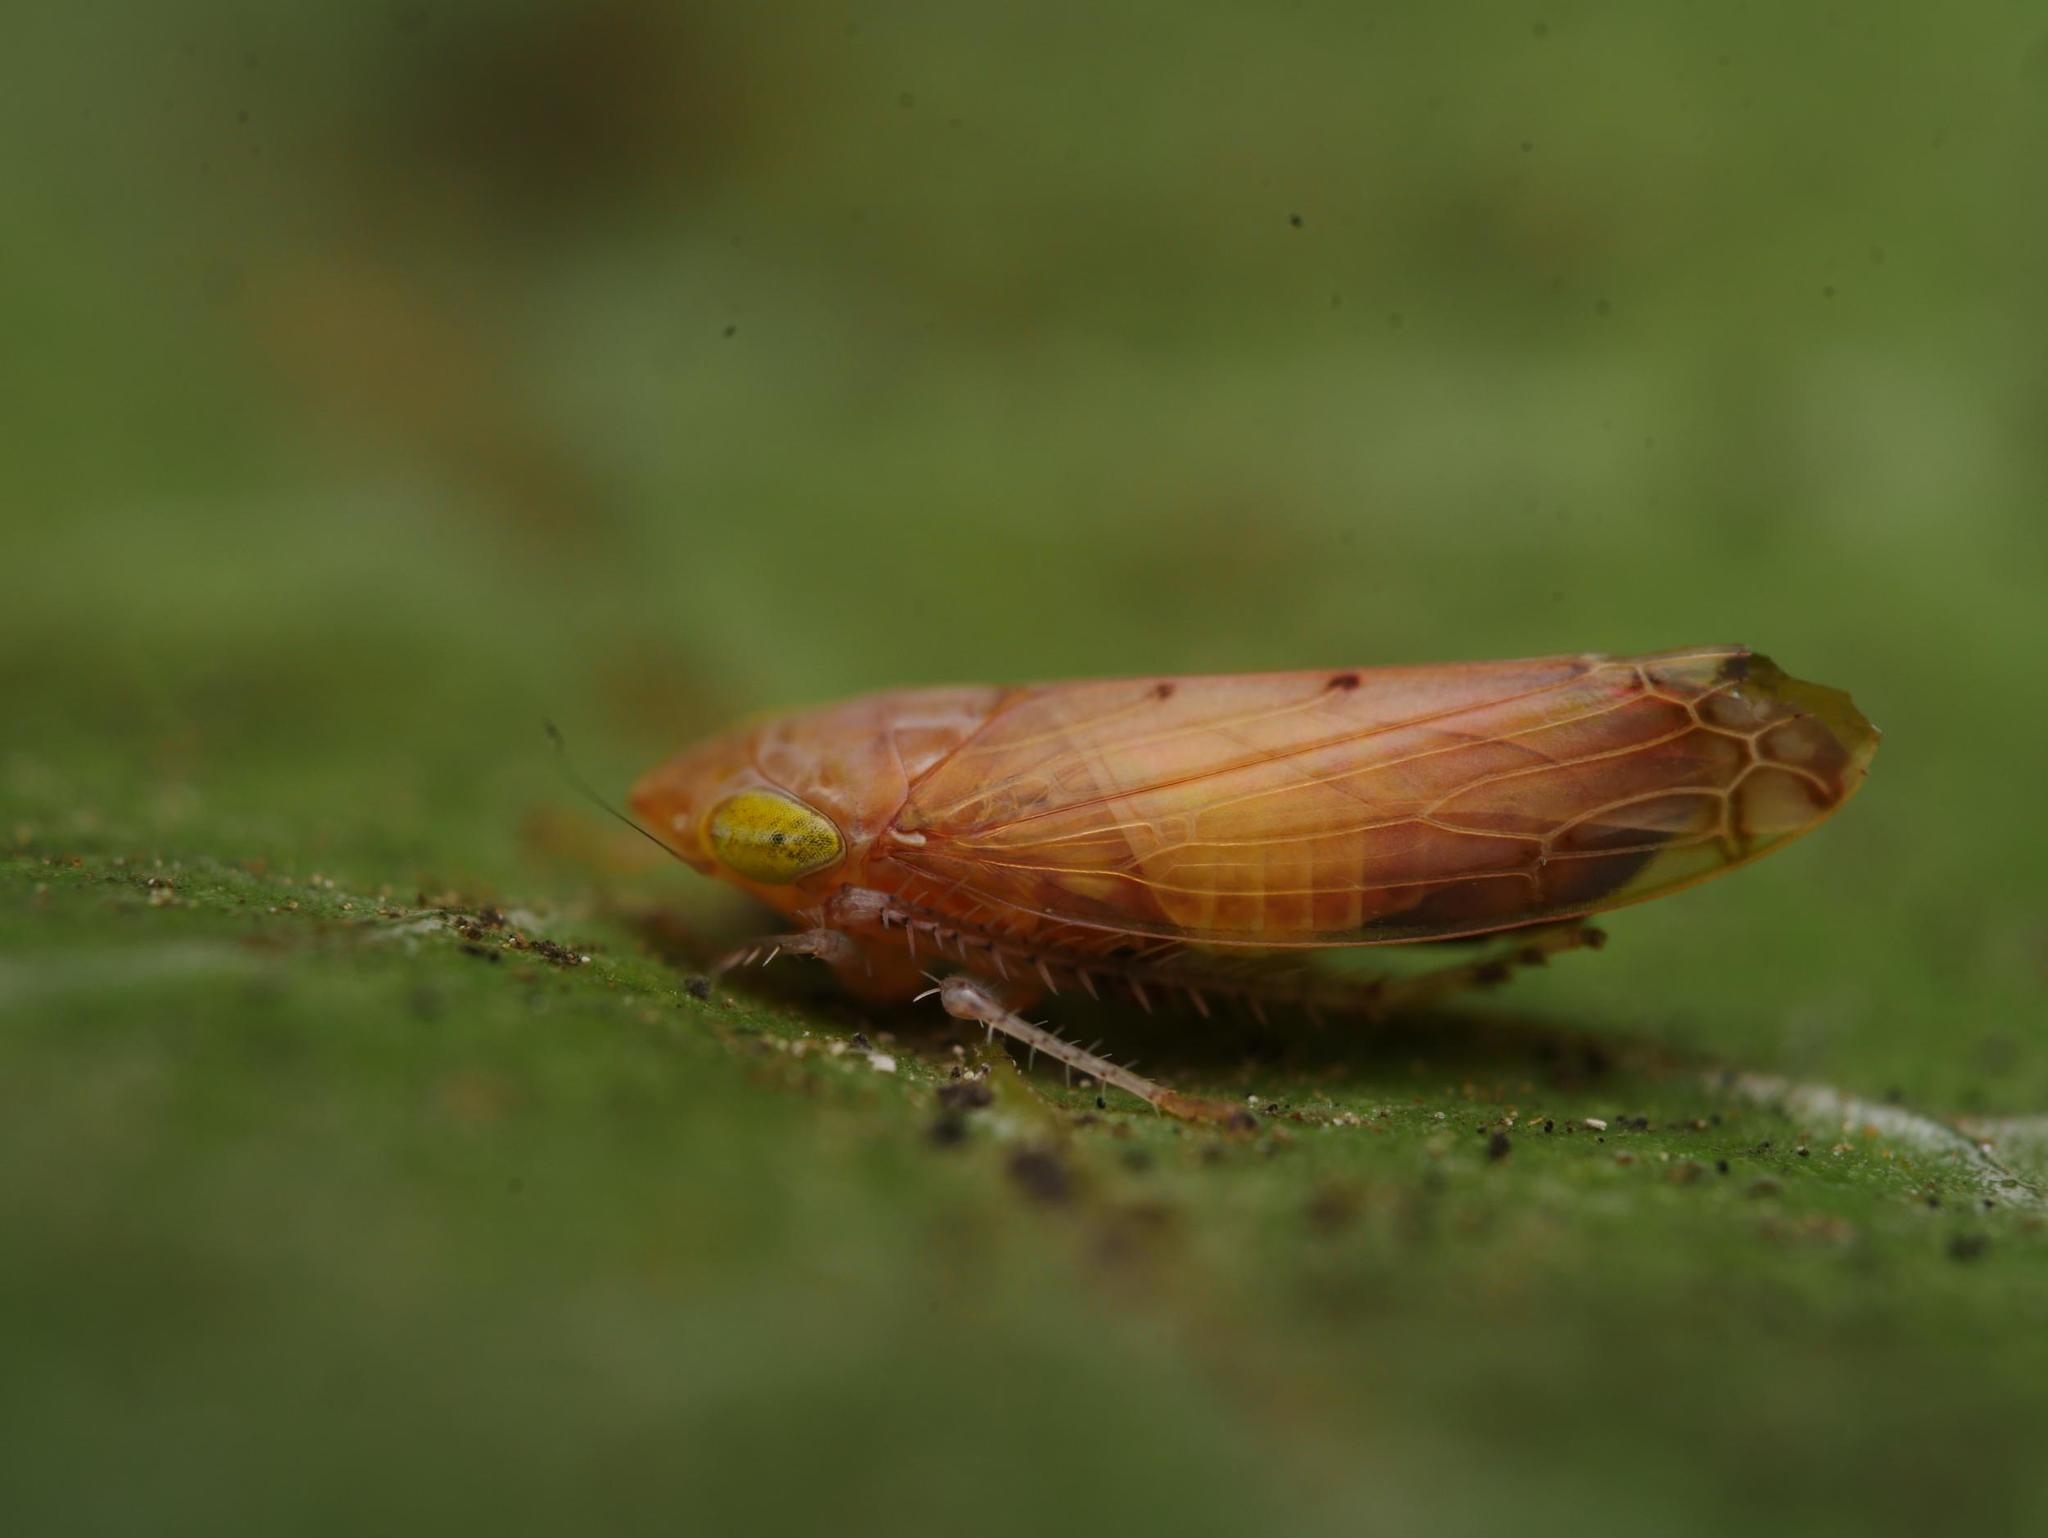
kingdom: Animalia
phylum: Arthropoda
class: Insecta
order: Hemiptera
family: Cicadellidae
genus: Synophropsis
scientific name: Synophropsis lauri
